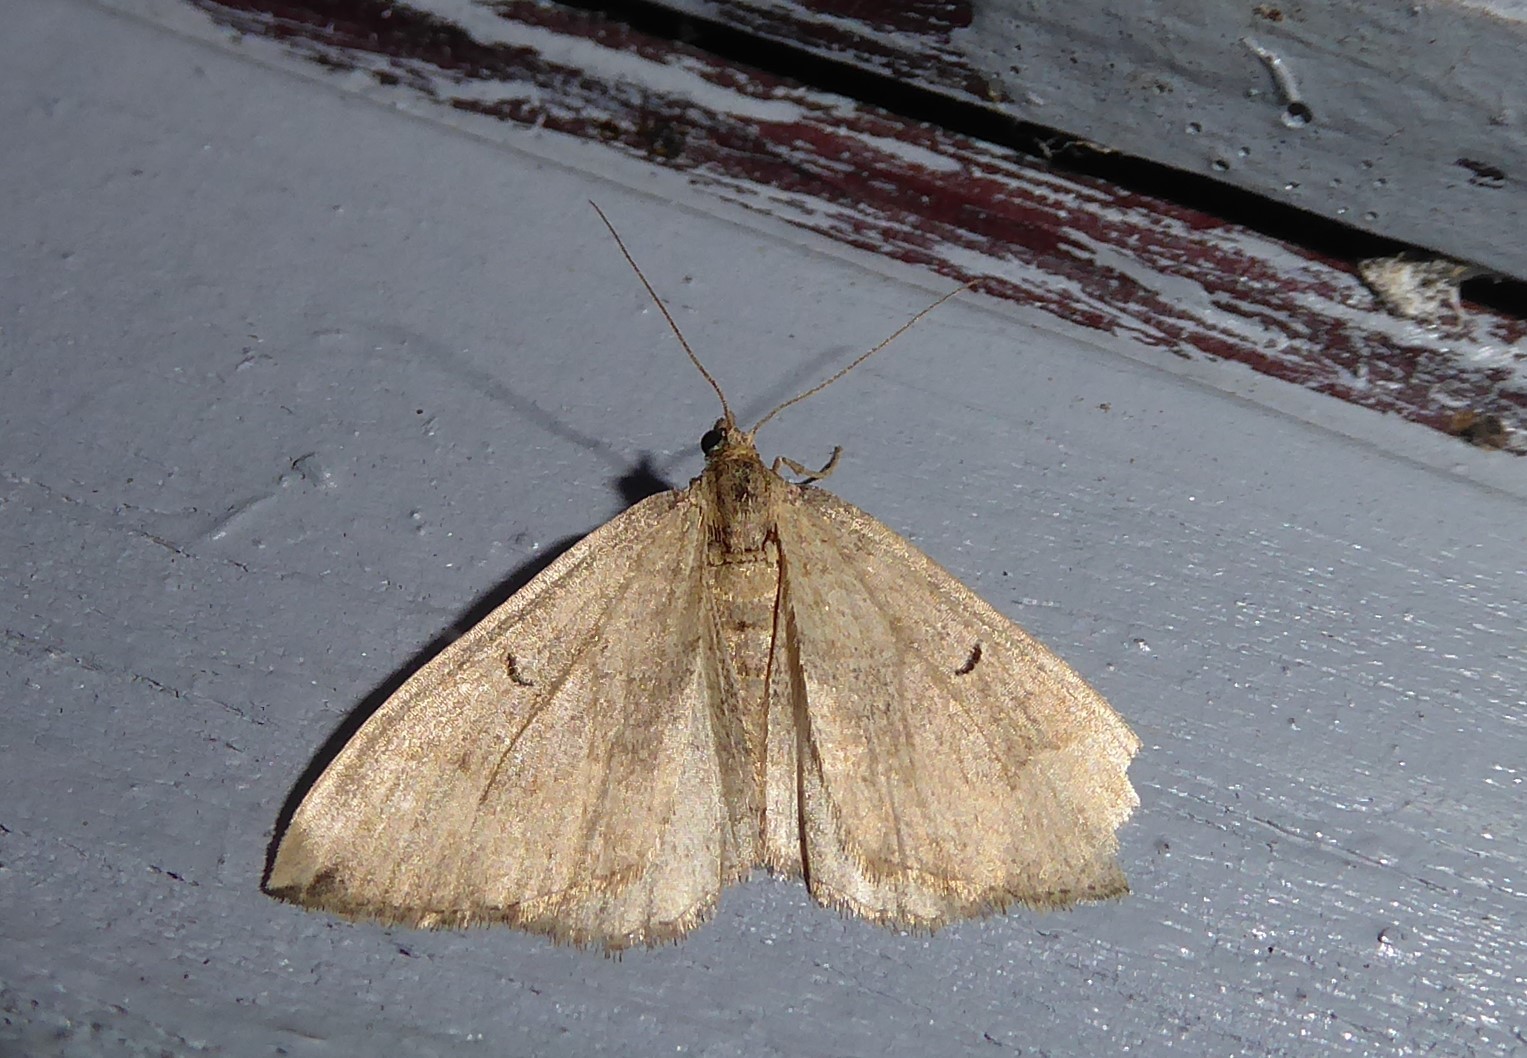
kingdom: Animalia
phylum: Arthropoda
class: Insecta
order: Lepidoptera
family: Geometridae
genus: Epyaxa
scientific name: Epyaxa rosearia
